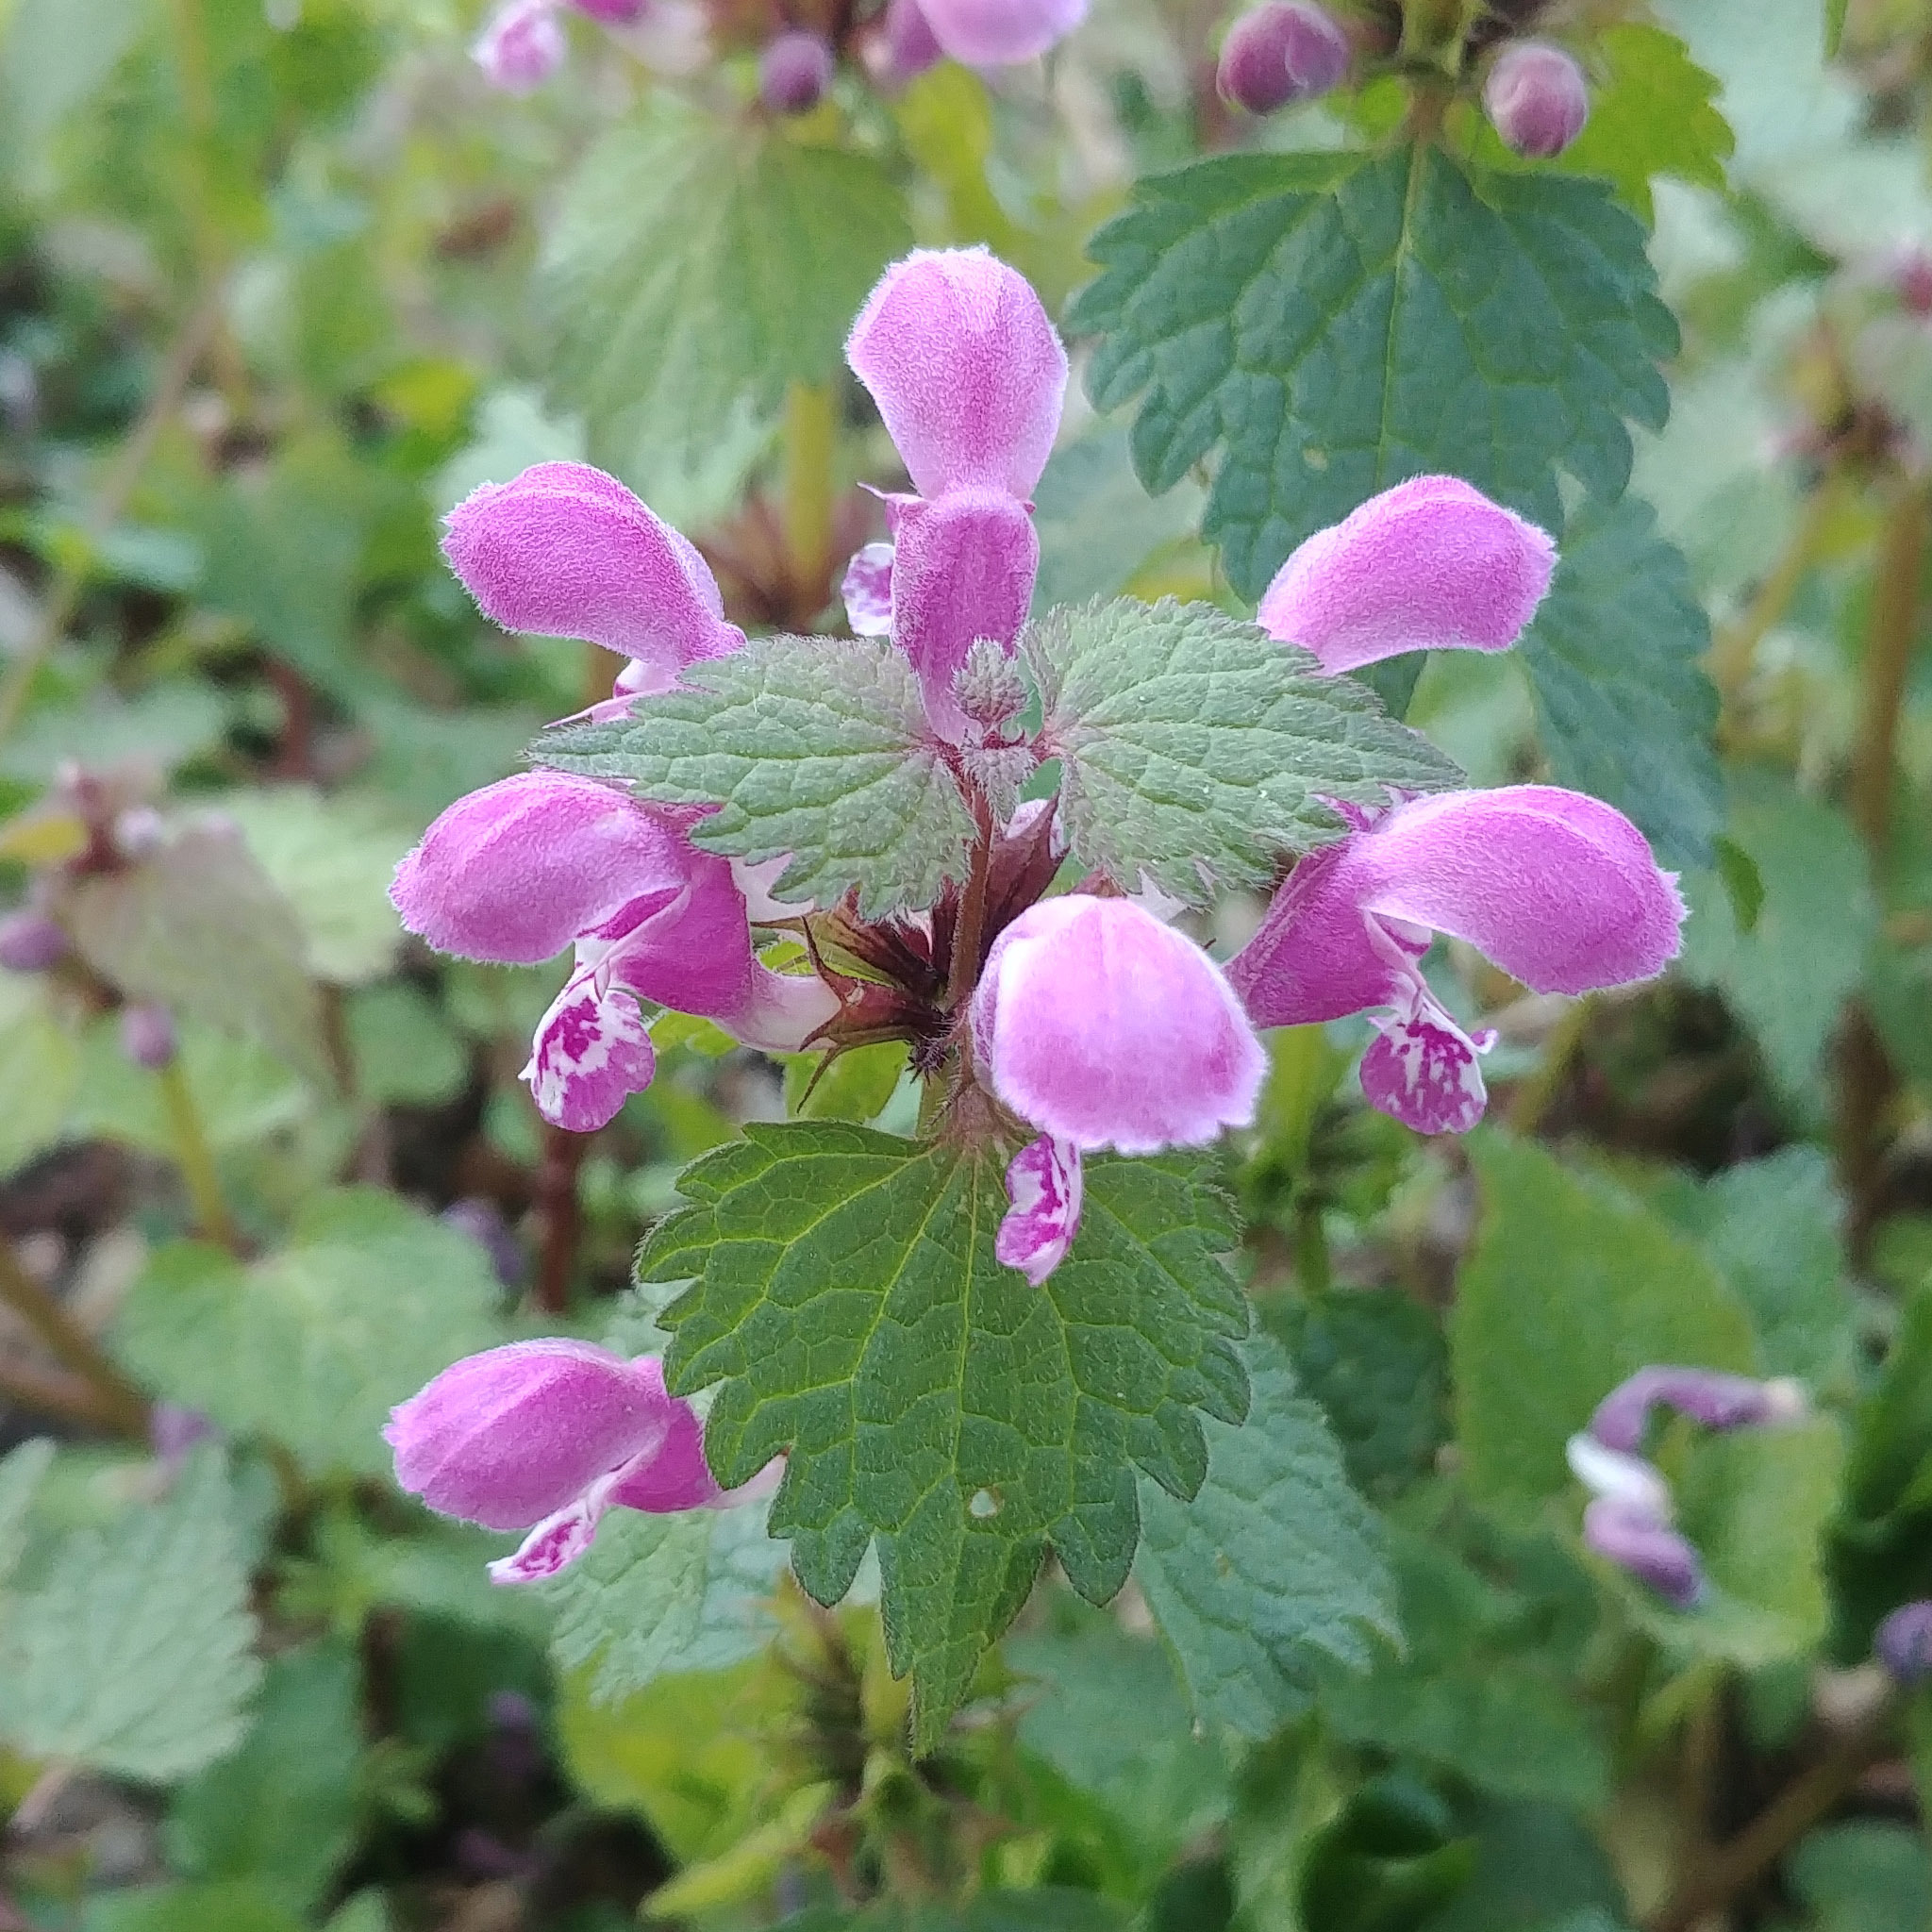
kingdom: Plantae
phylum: Tracheophyta
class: Magnoliopsida
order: Lamiales
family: Lamiaceae
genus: Lamium
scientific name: Lamium maculatum
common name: Spotted dead-nettle
